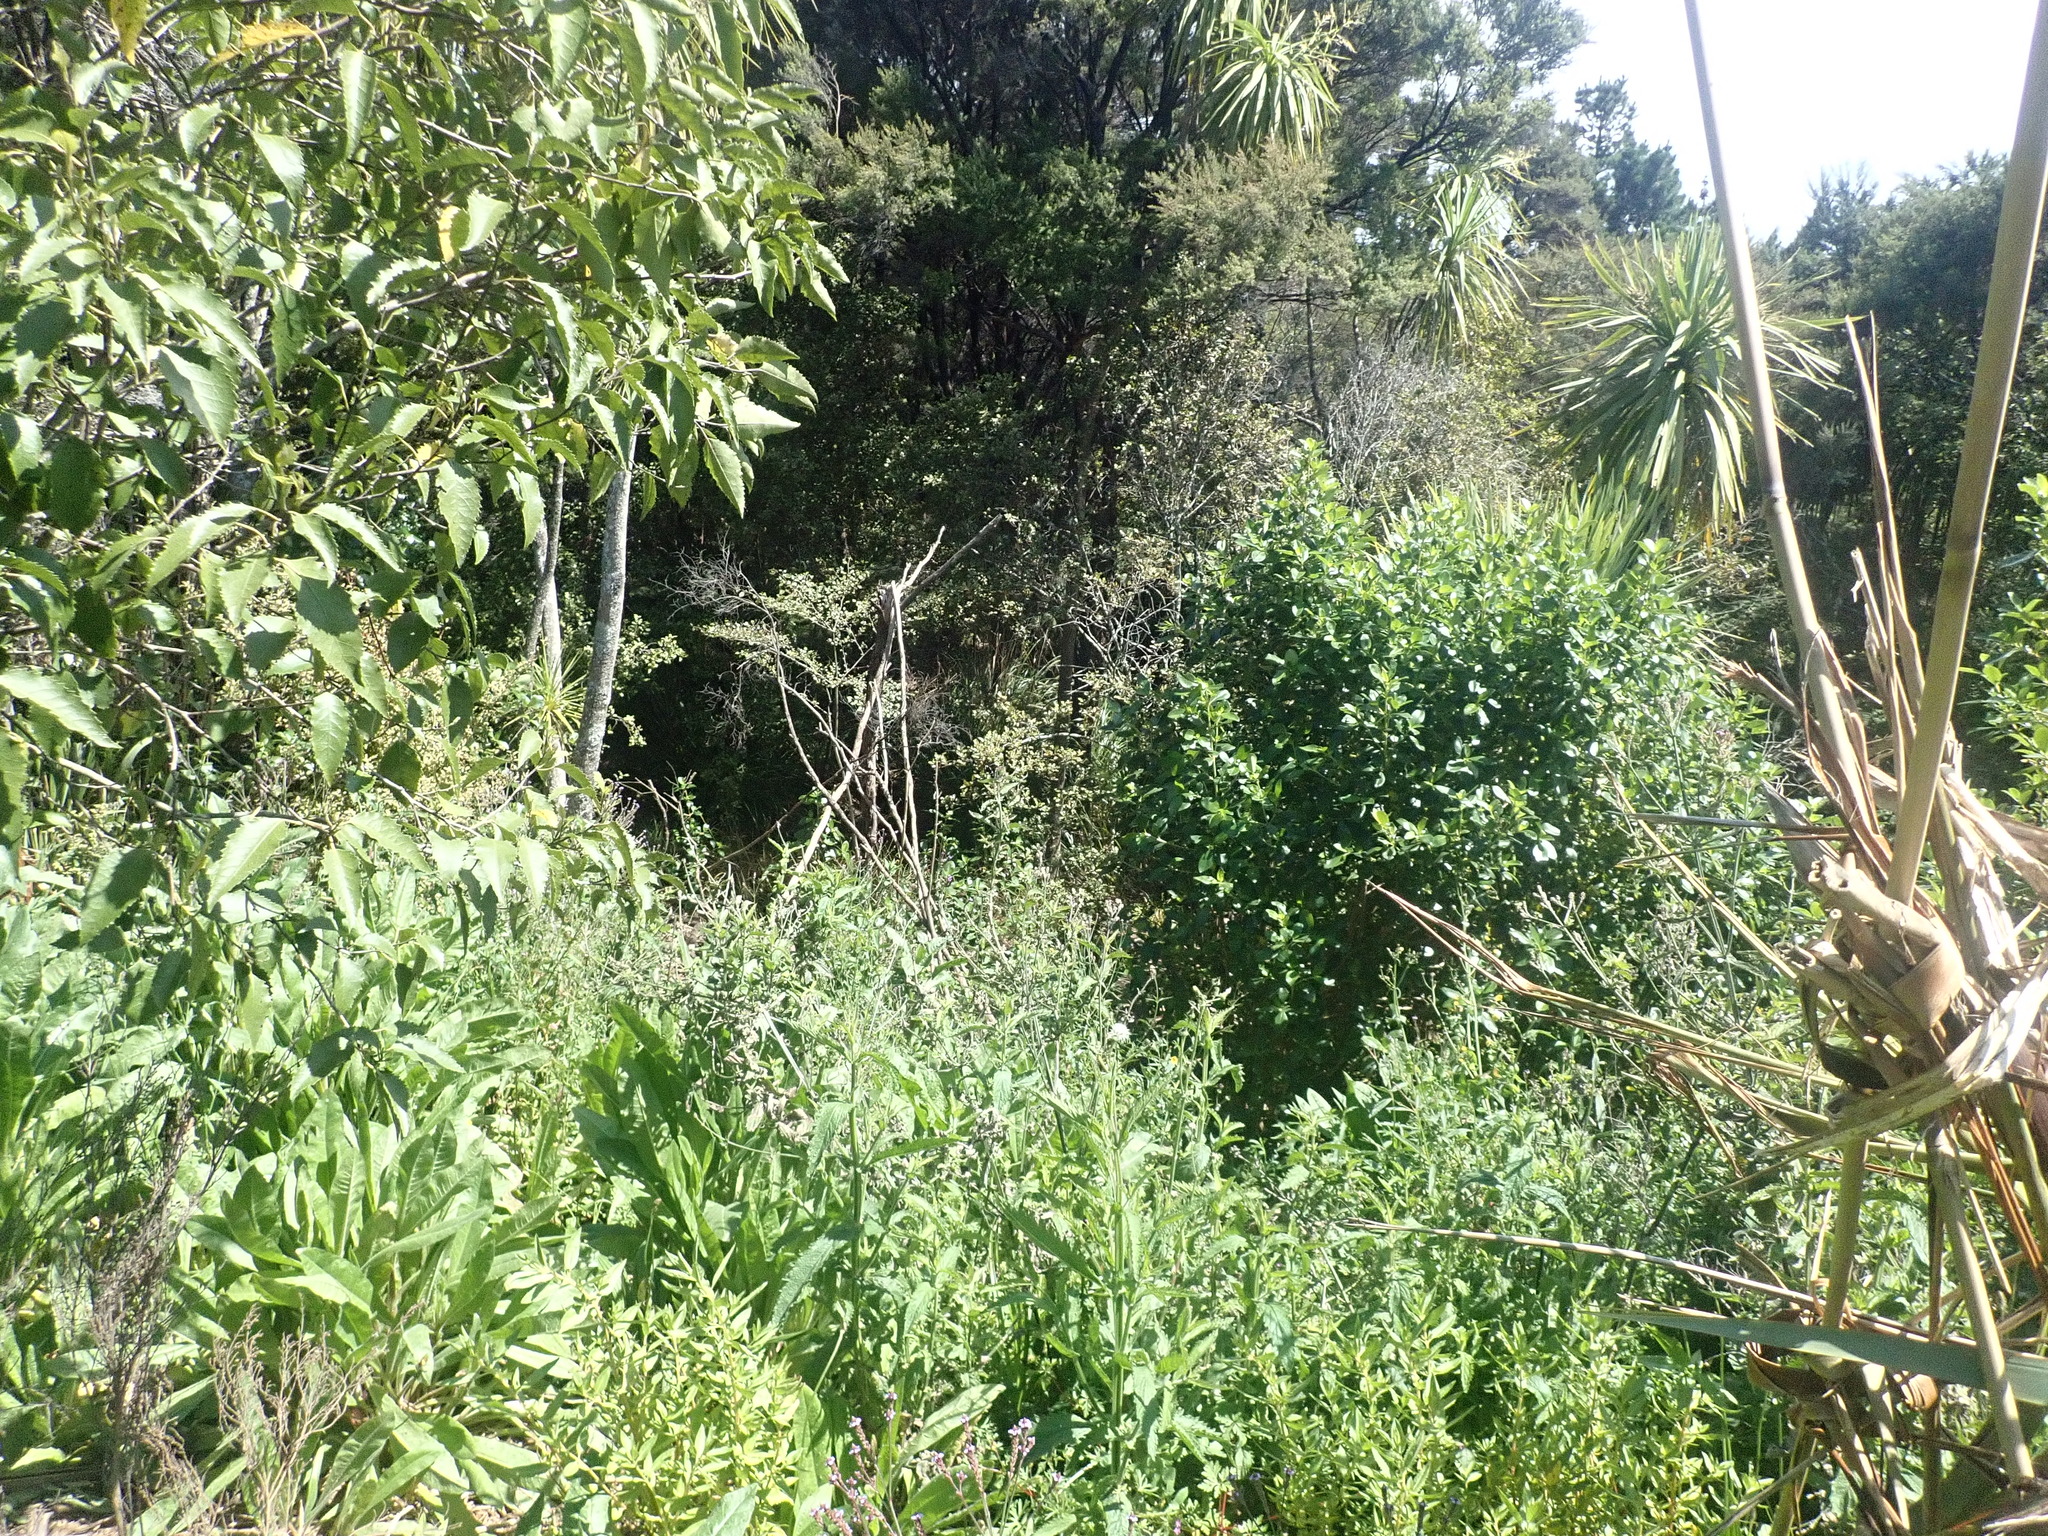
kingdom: Plantae
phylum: Tracheophyta
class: Magnoliopsida
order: Asterales
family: Rousseaceae
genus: Carpodetus
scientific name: Carpodetus serratus
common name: White mapau
